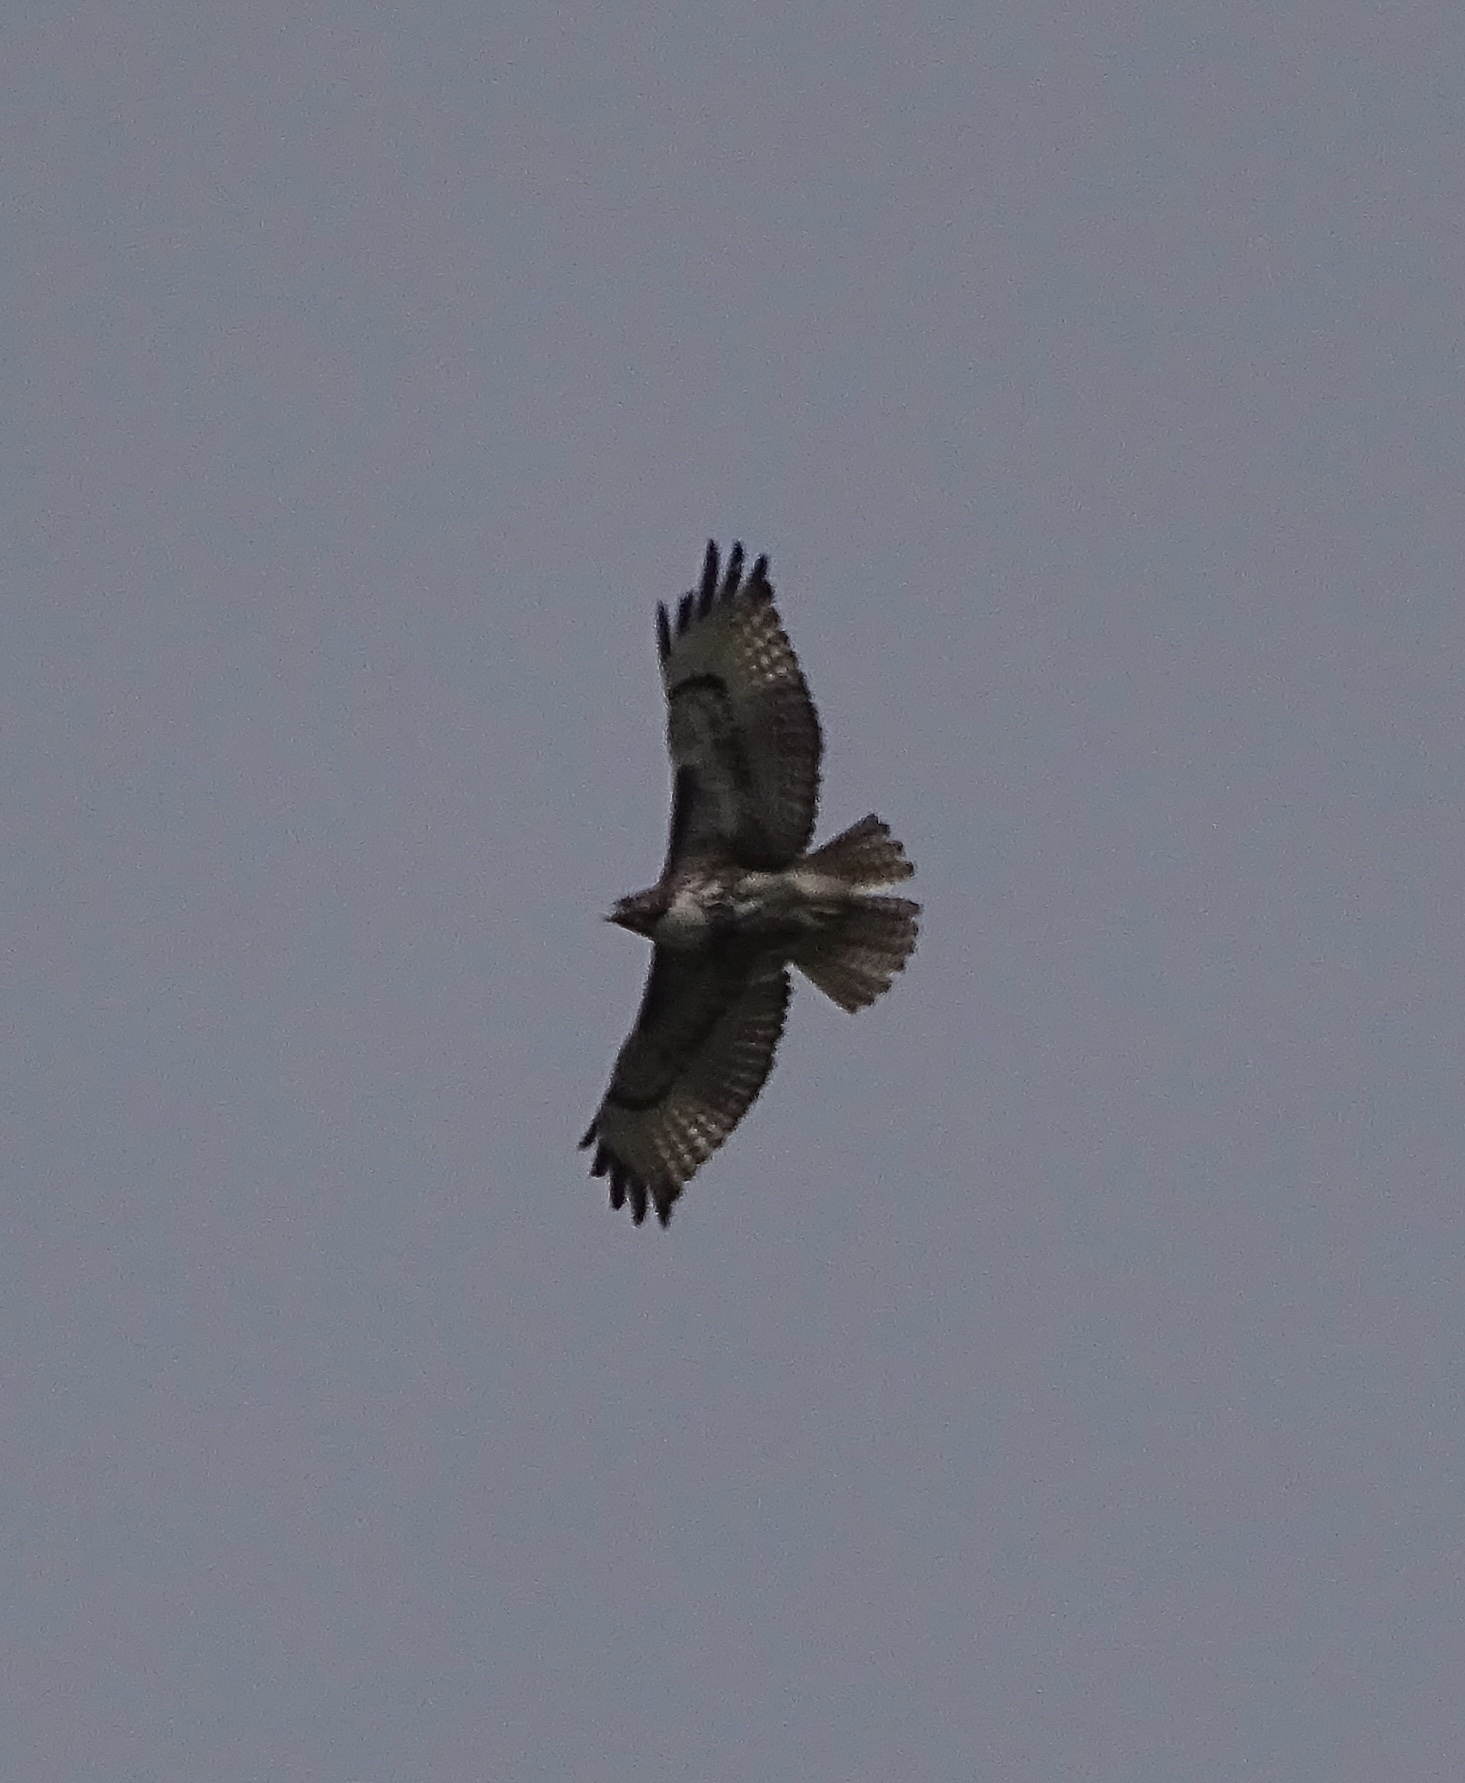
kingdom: Animalia
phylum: Chordata
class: Aves
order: Accipitriformes
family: Accipitridae
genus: Buteo
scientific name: Buteo jamaicensis
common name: Red-tailed hawk
